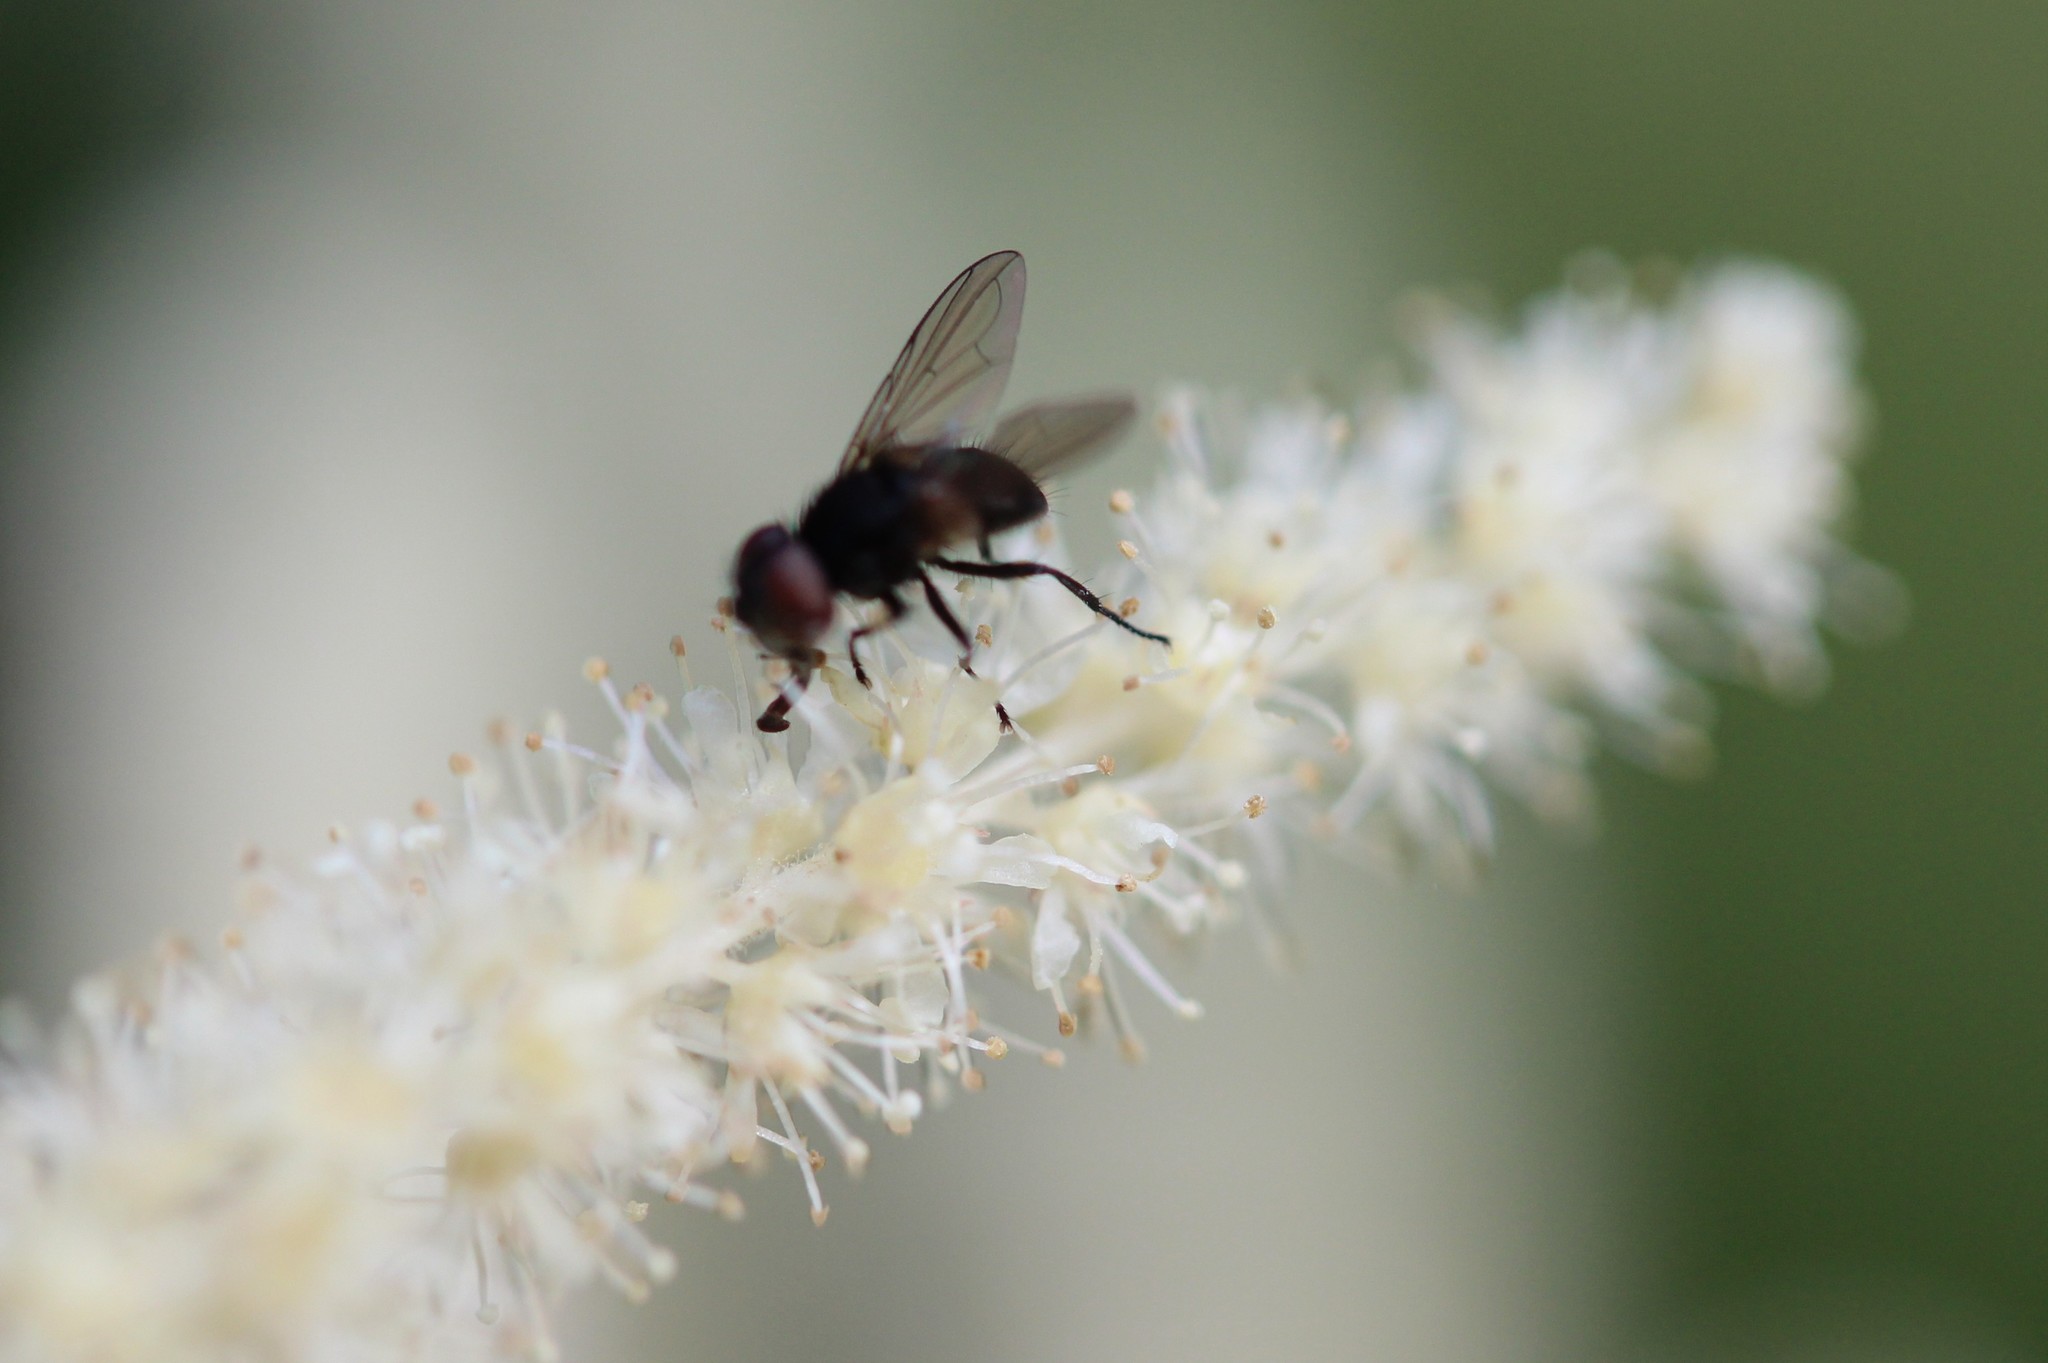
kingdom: Animalia
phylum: Arthropoda
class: Insecta
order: Diptera
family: Tachinidae
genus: Phasia
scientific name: Phasia
